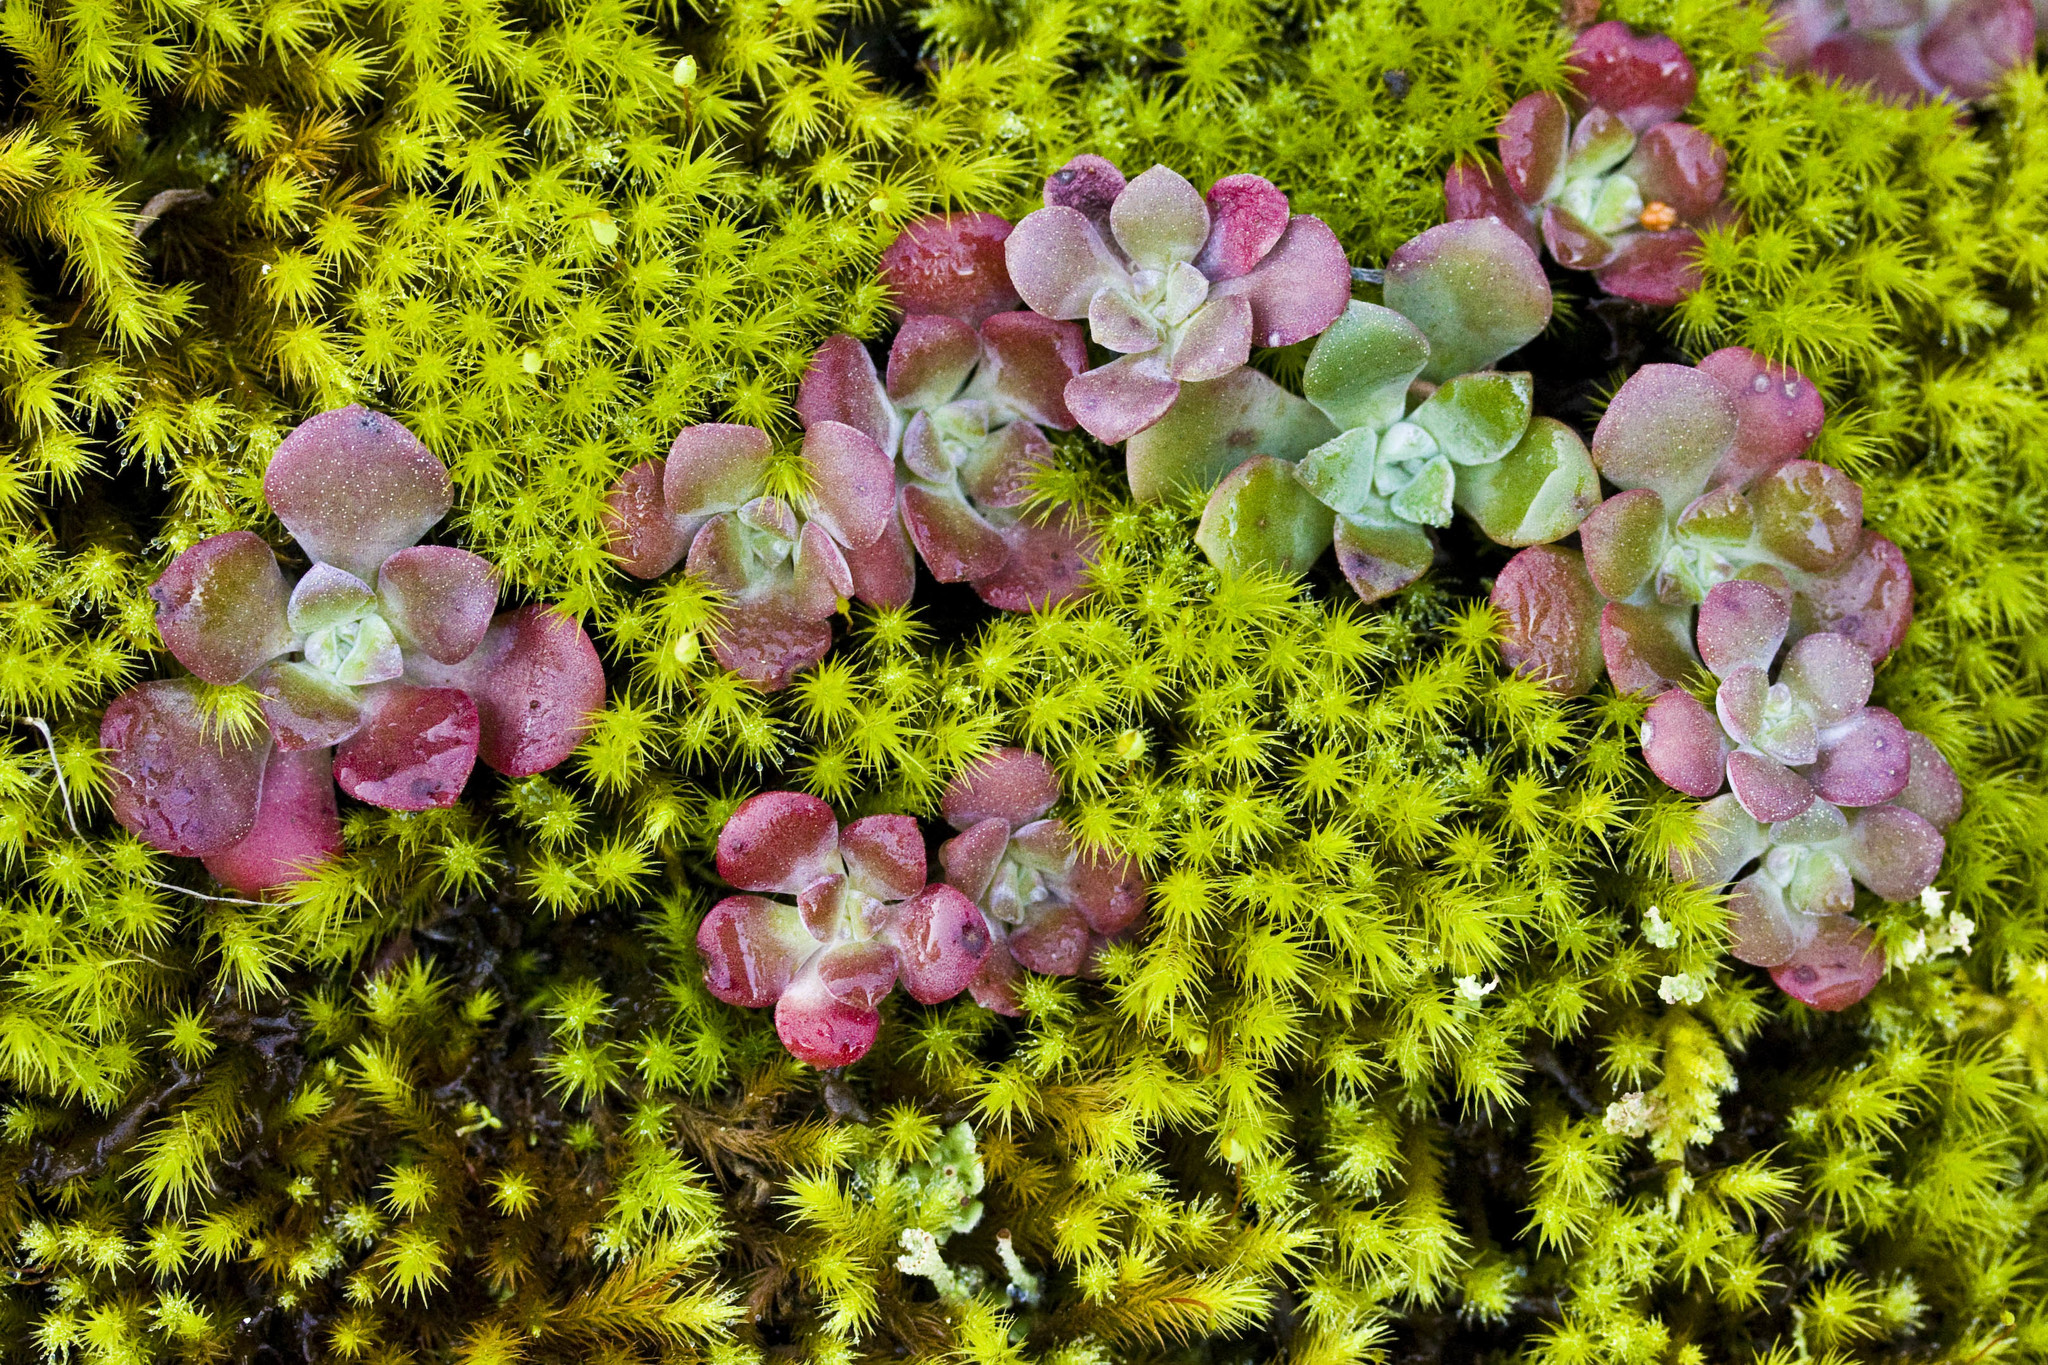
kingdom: Plantae
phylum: Tracheophyta
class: Magnoliopsida
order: Saxifragales
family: Crassulaceae
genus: Sedum
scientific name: Sedum spathulifolium
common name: Colorado stonecrop
